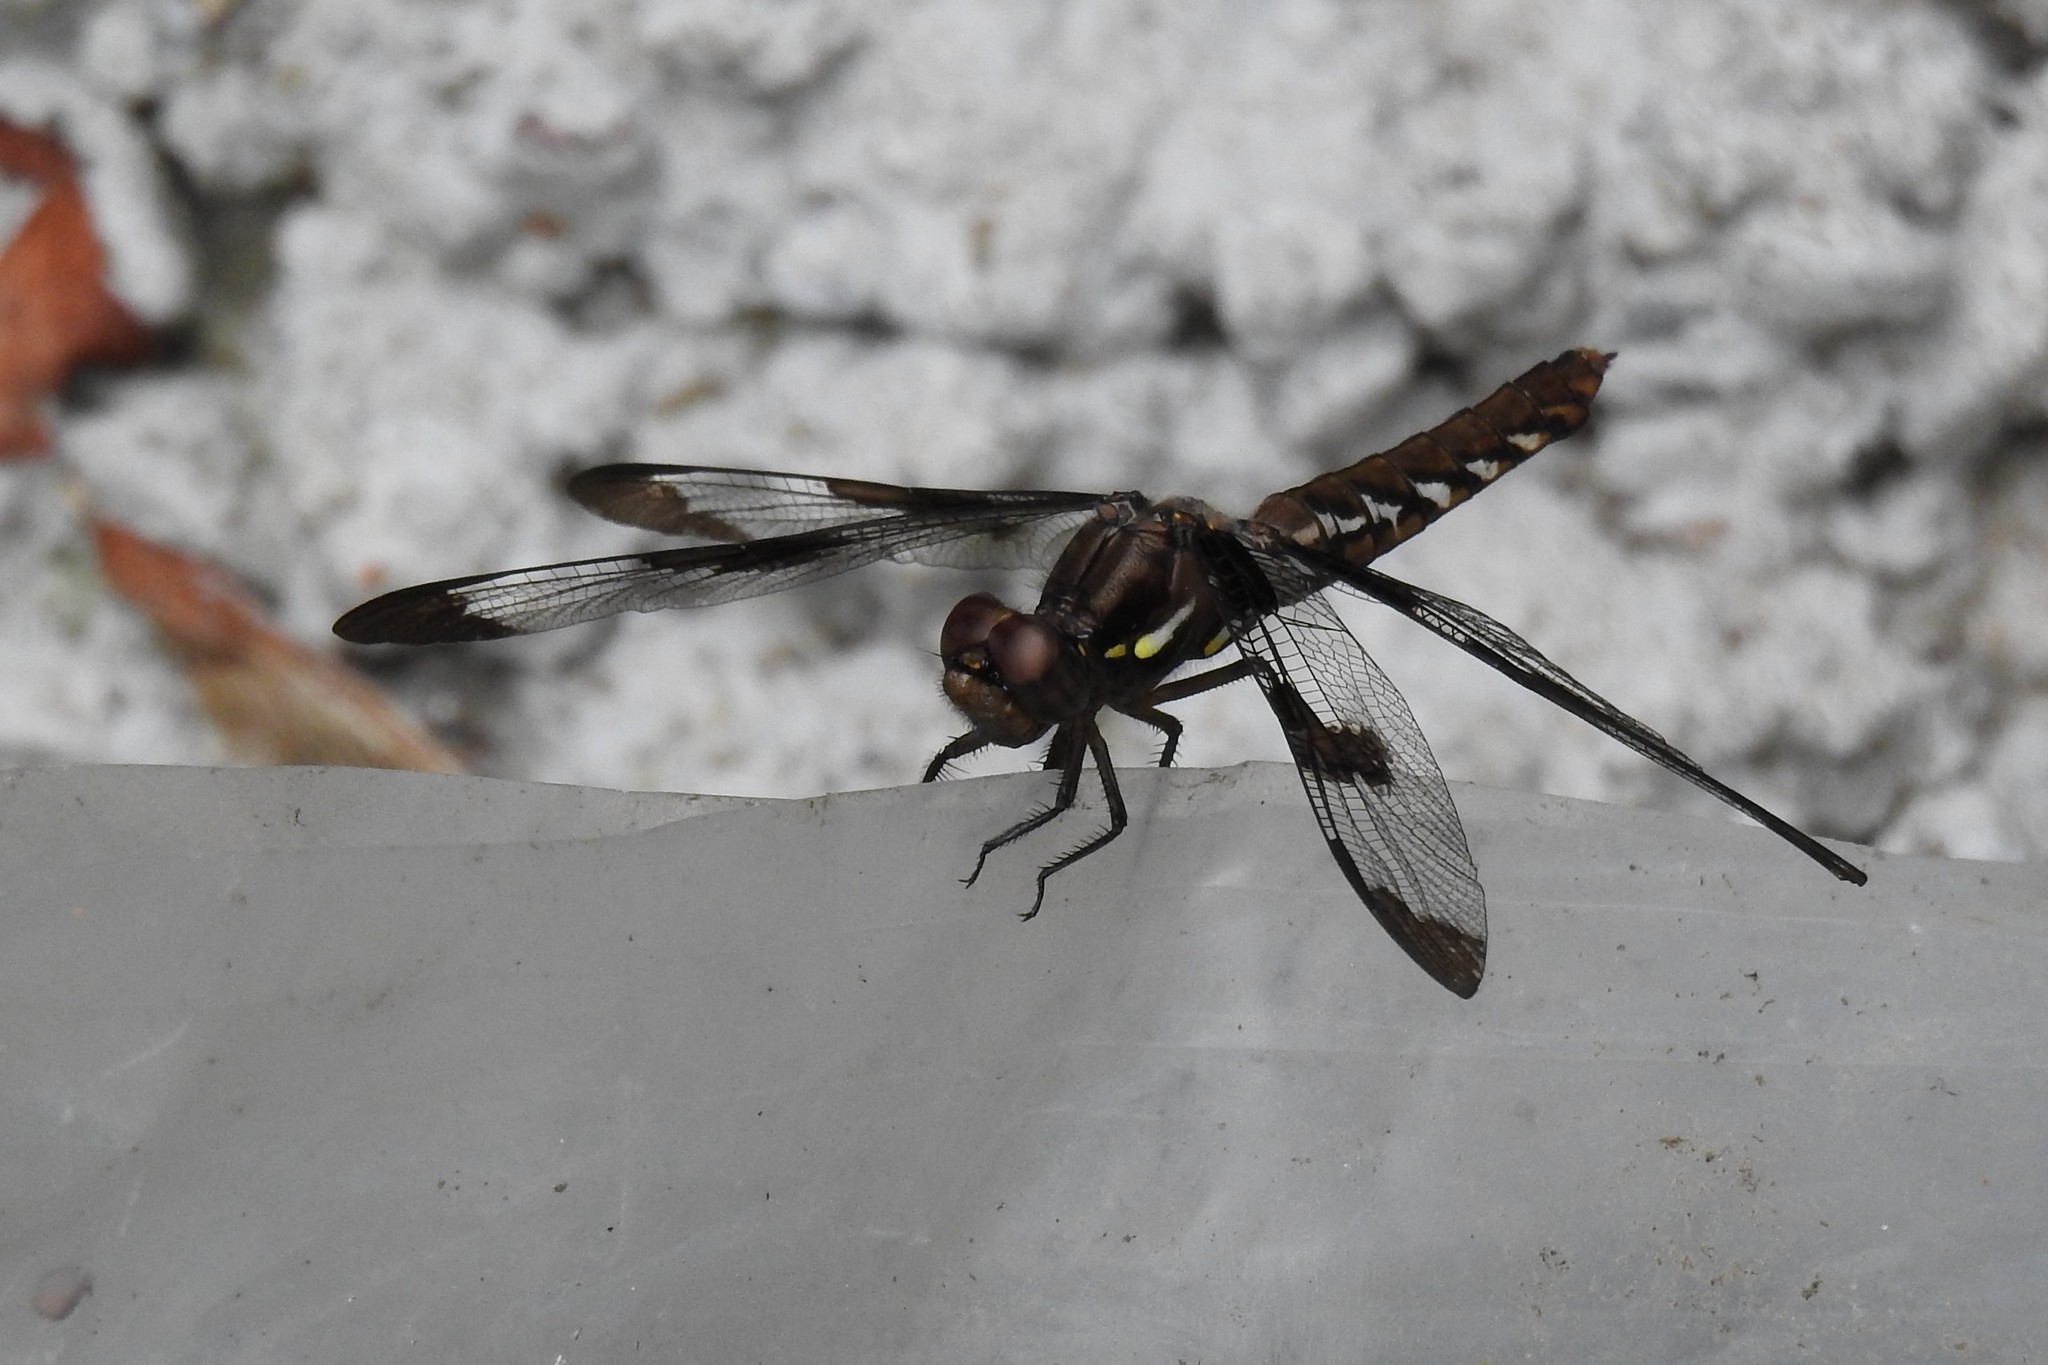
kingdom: Animalia
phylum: Arthropoda
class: Insecta
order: Odonata
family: Libellulidae
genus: Plathemis
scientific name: Plathemis lydia
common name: Common whitetail
